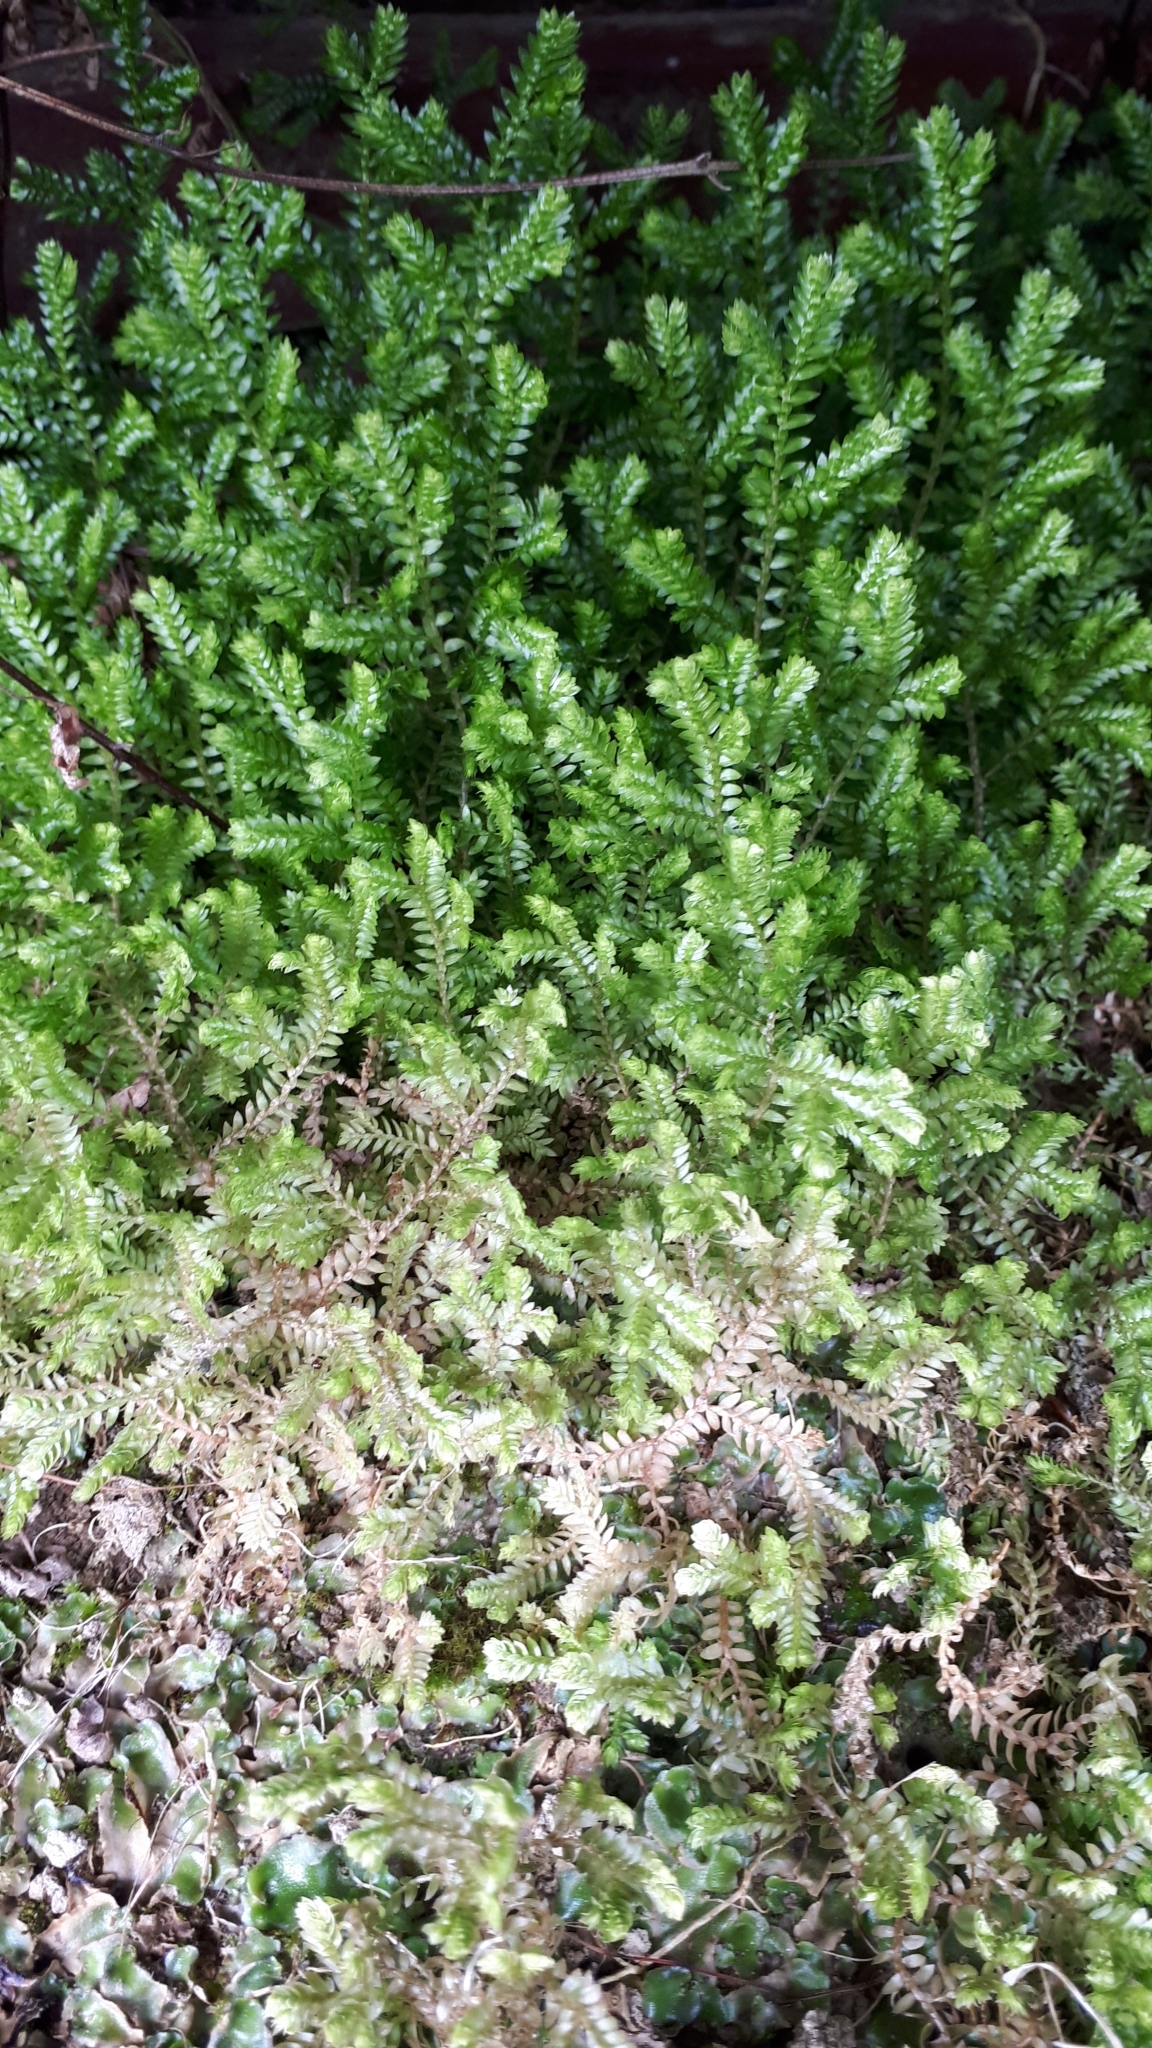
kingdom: Plantae
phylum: Tracheophyta
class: Lycopodiopsida
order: Selaginellales
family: Selaginellaceae
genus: Selaginella
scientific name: Selaginella kraussiana
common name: Krauss' spikemoss
